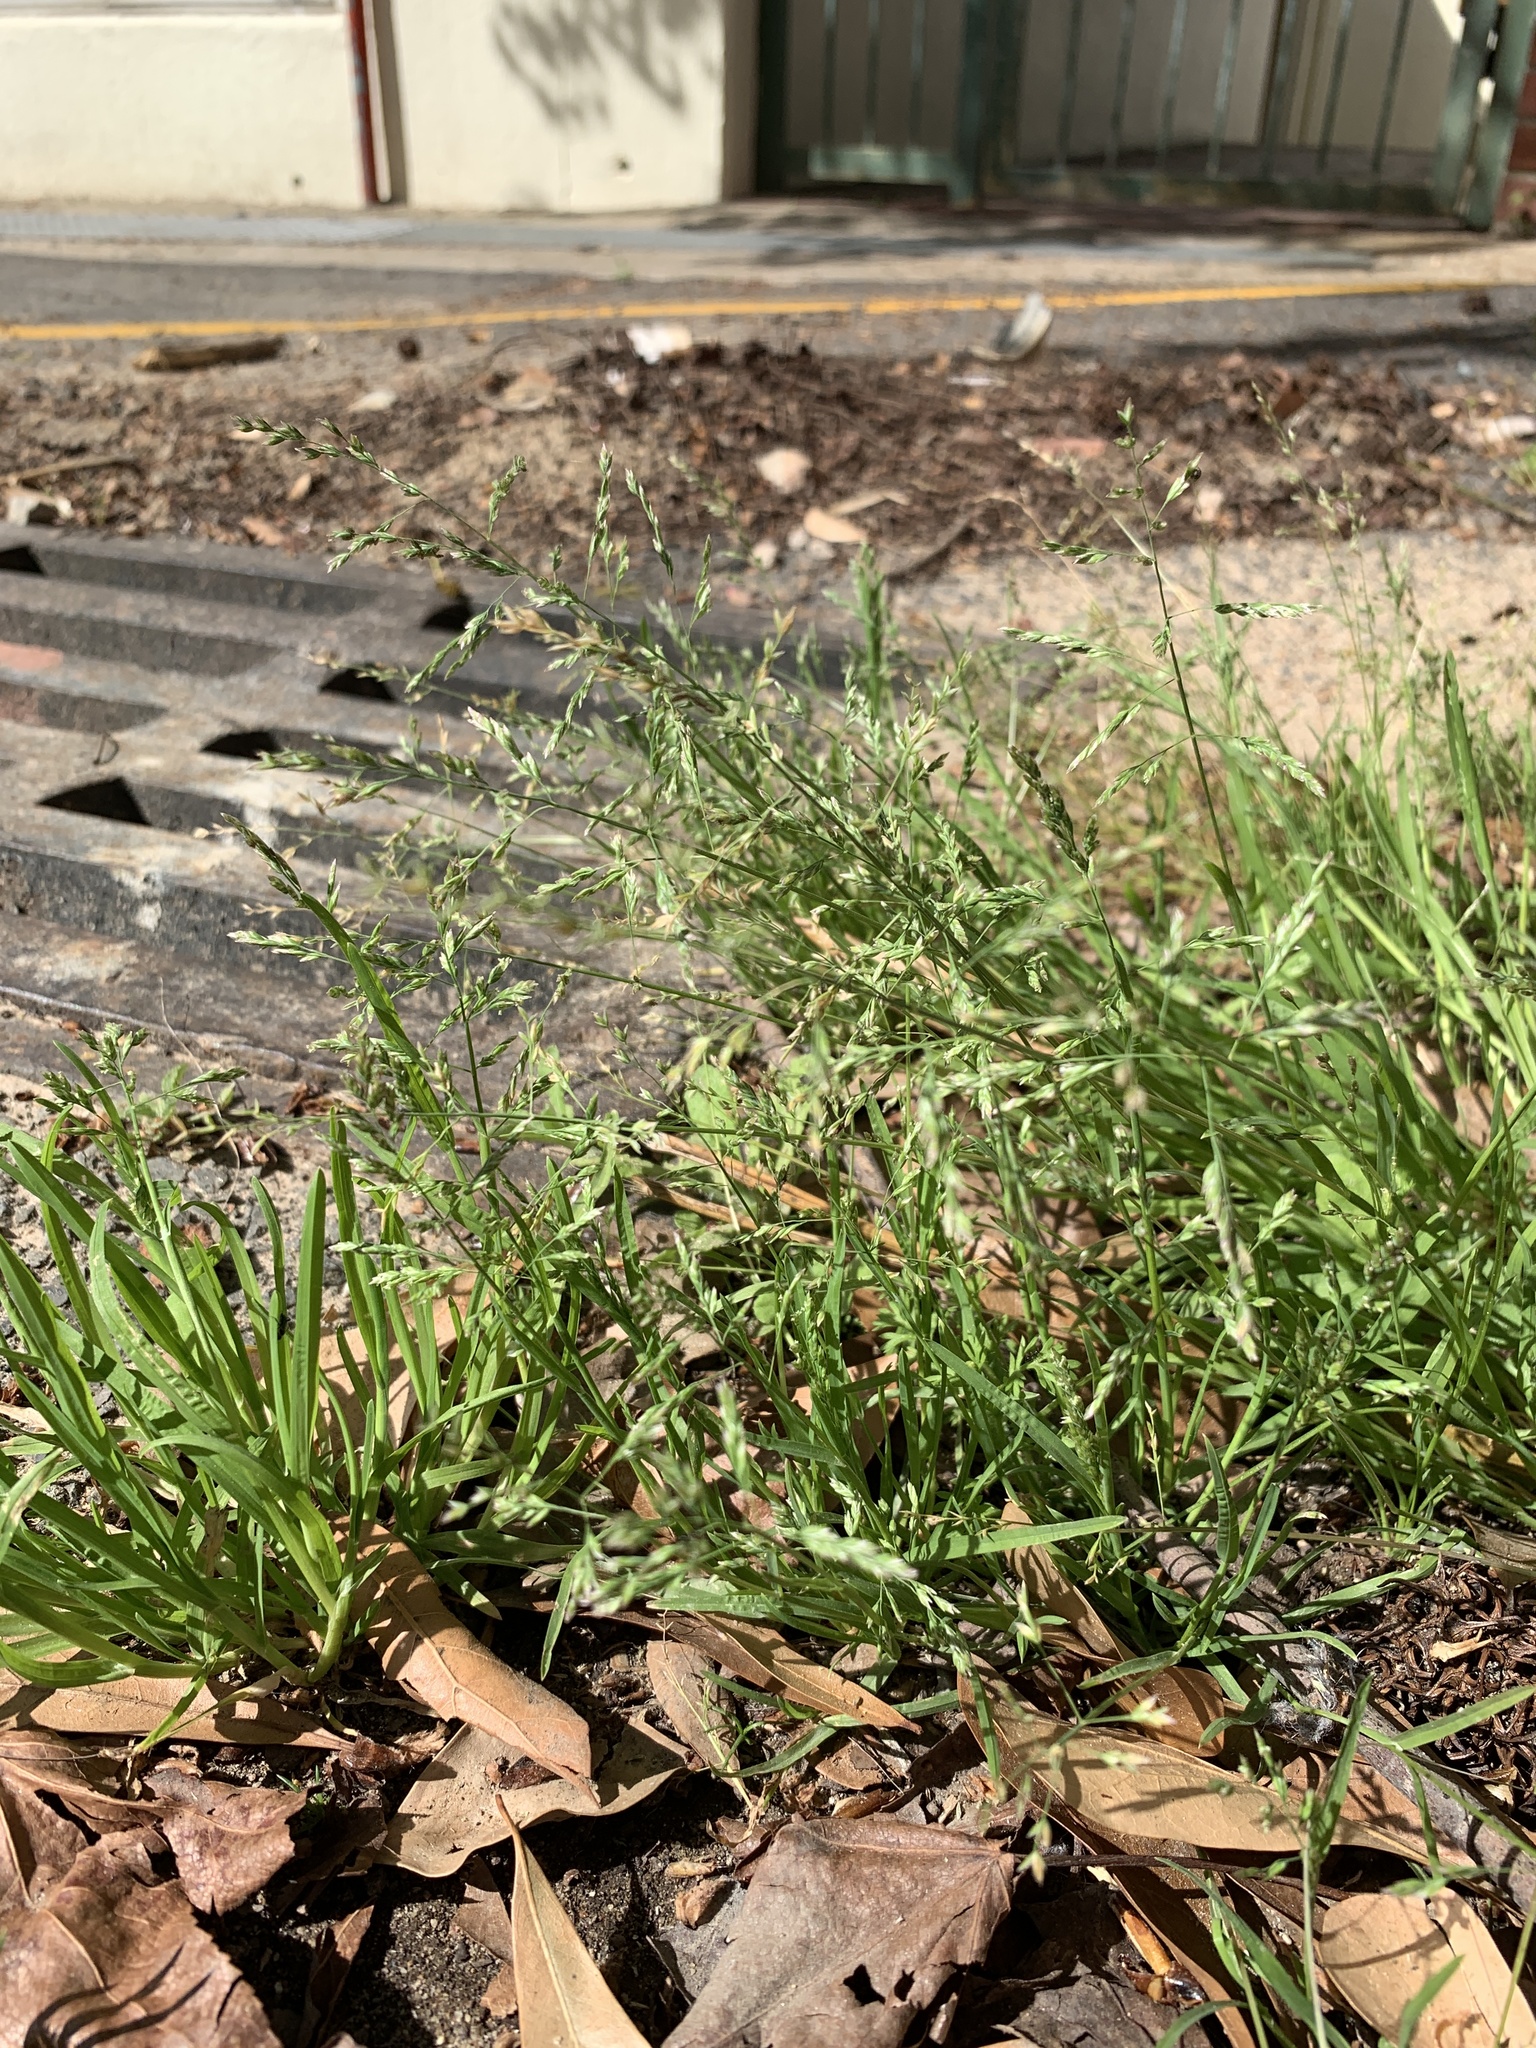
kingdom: Plantae
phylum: Tracheophyta
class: Liliopsida
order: Poales
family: Poaceae
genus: Poa
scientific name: Poa annua
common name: Annual bluegrass
